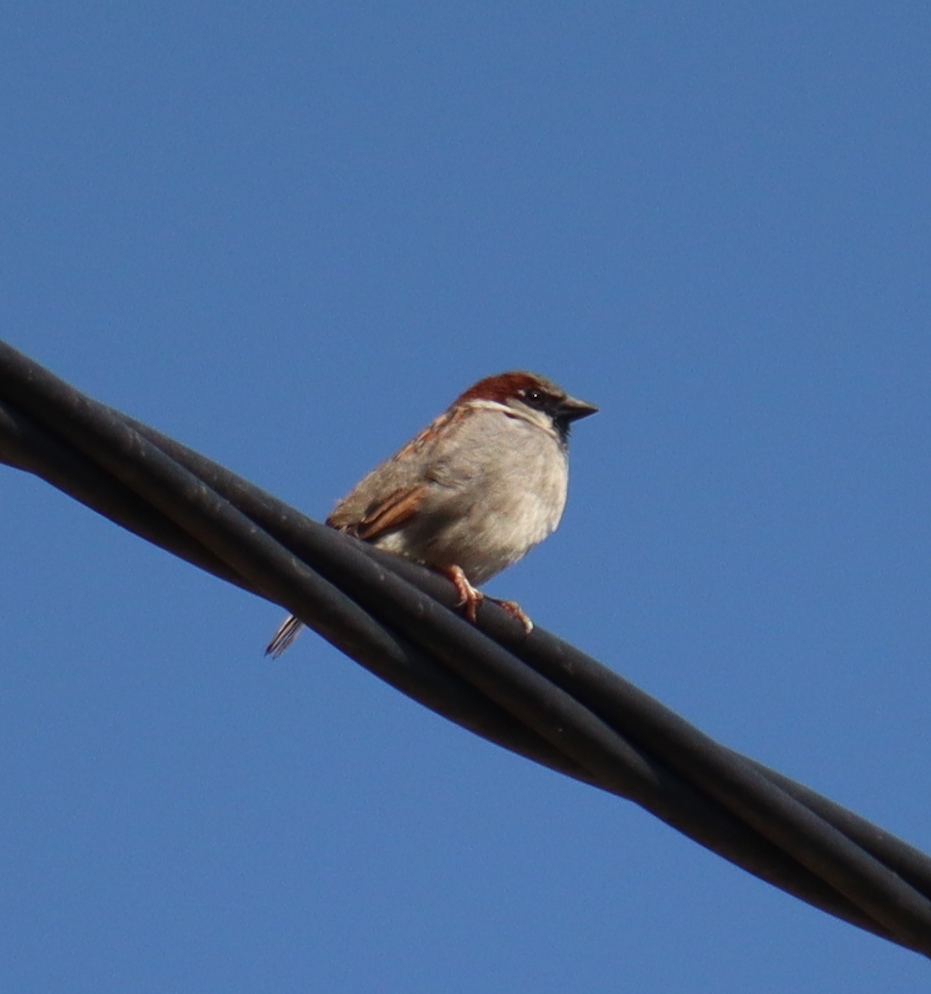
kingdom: Animalia
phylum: Chordata
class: Aves
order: Passeriformes
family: Passeridae
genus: Passer
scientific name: Passer domesticus
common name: House sparrow
